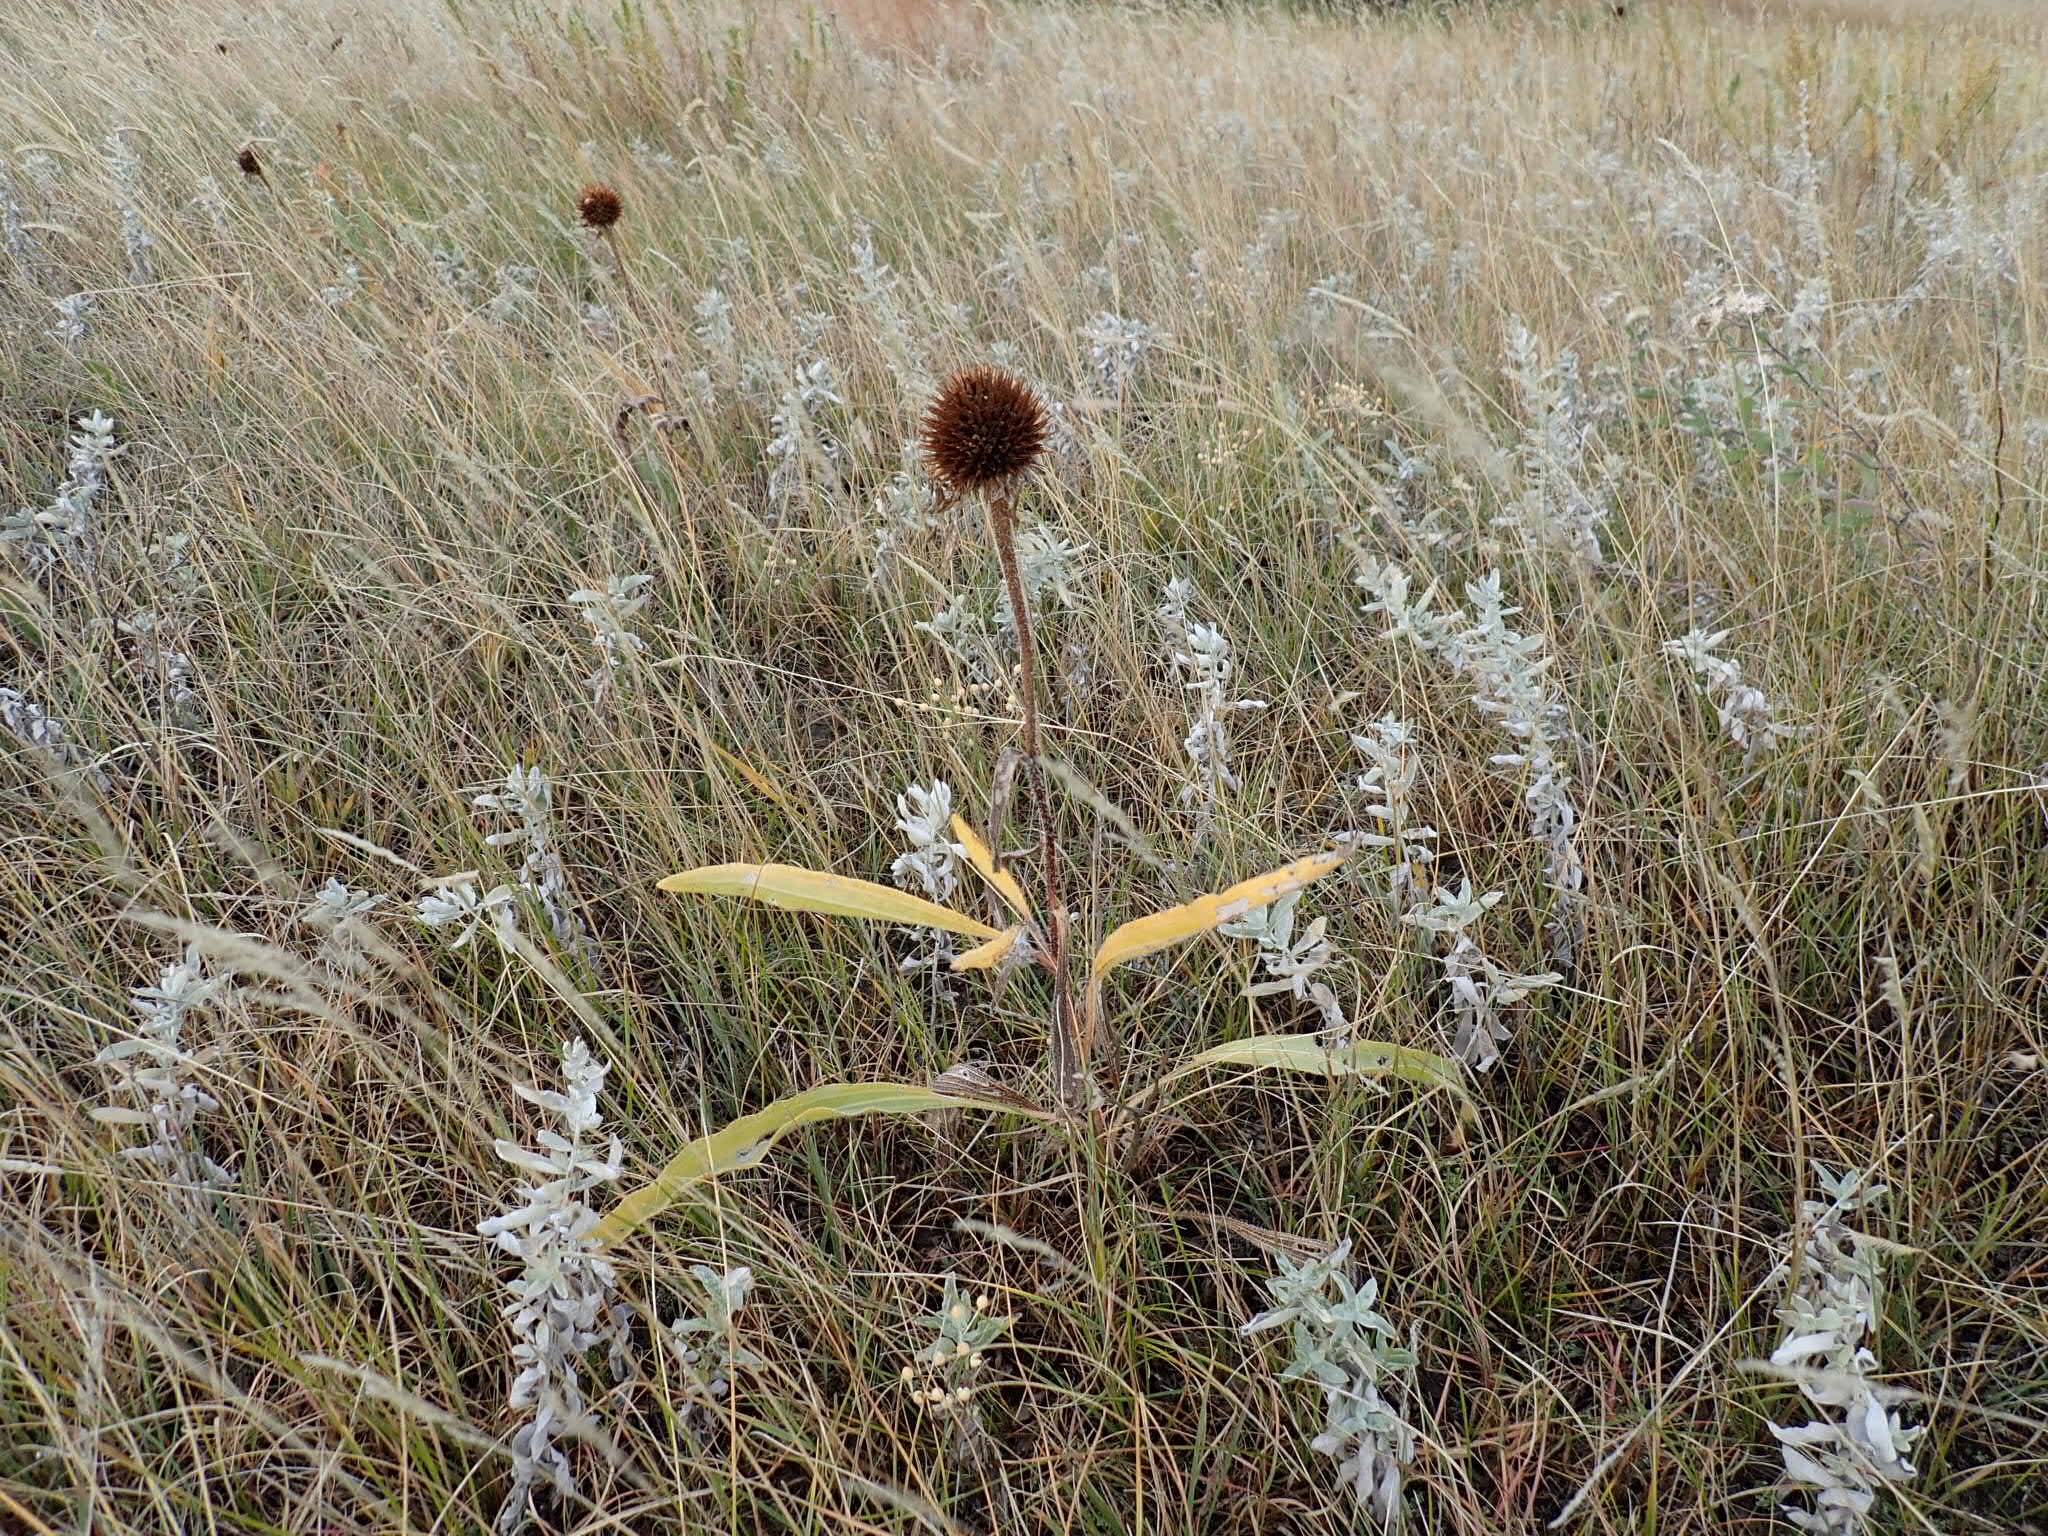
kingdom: Plantae
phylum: Tracheophyta
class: Magnoliopsida
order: Asterales
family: Asteraceae
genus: Echinacea
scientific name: Echinacea angustifolia
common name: Black-sampson echinacea
